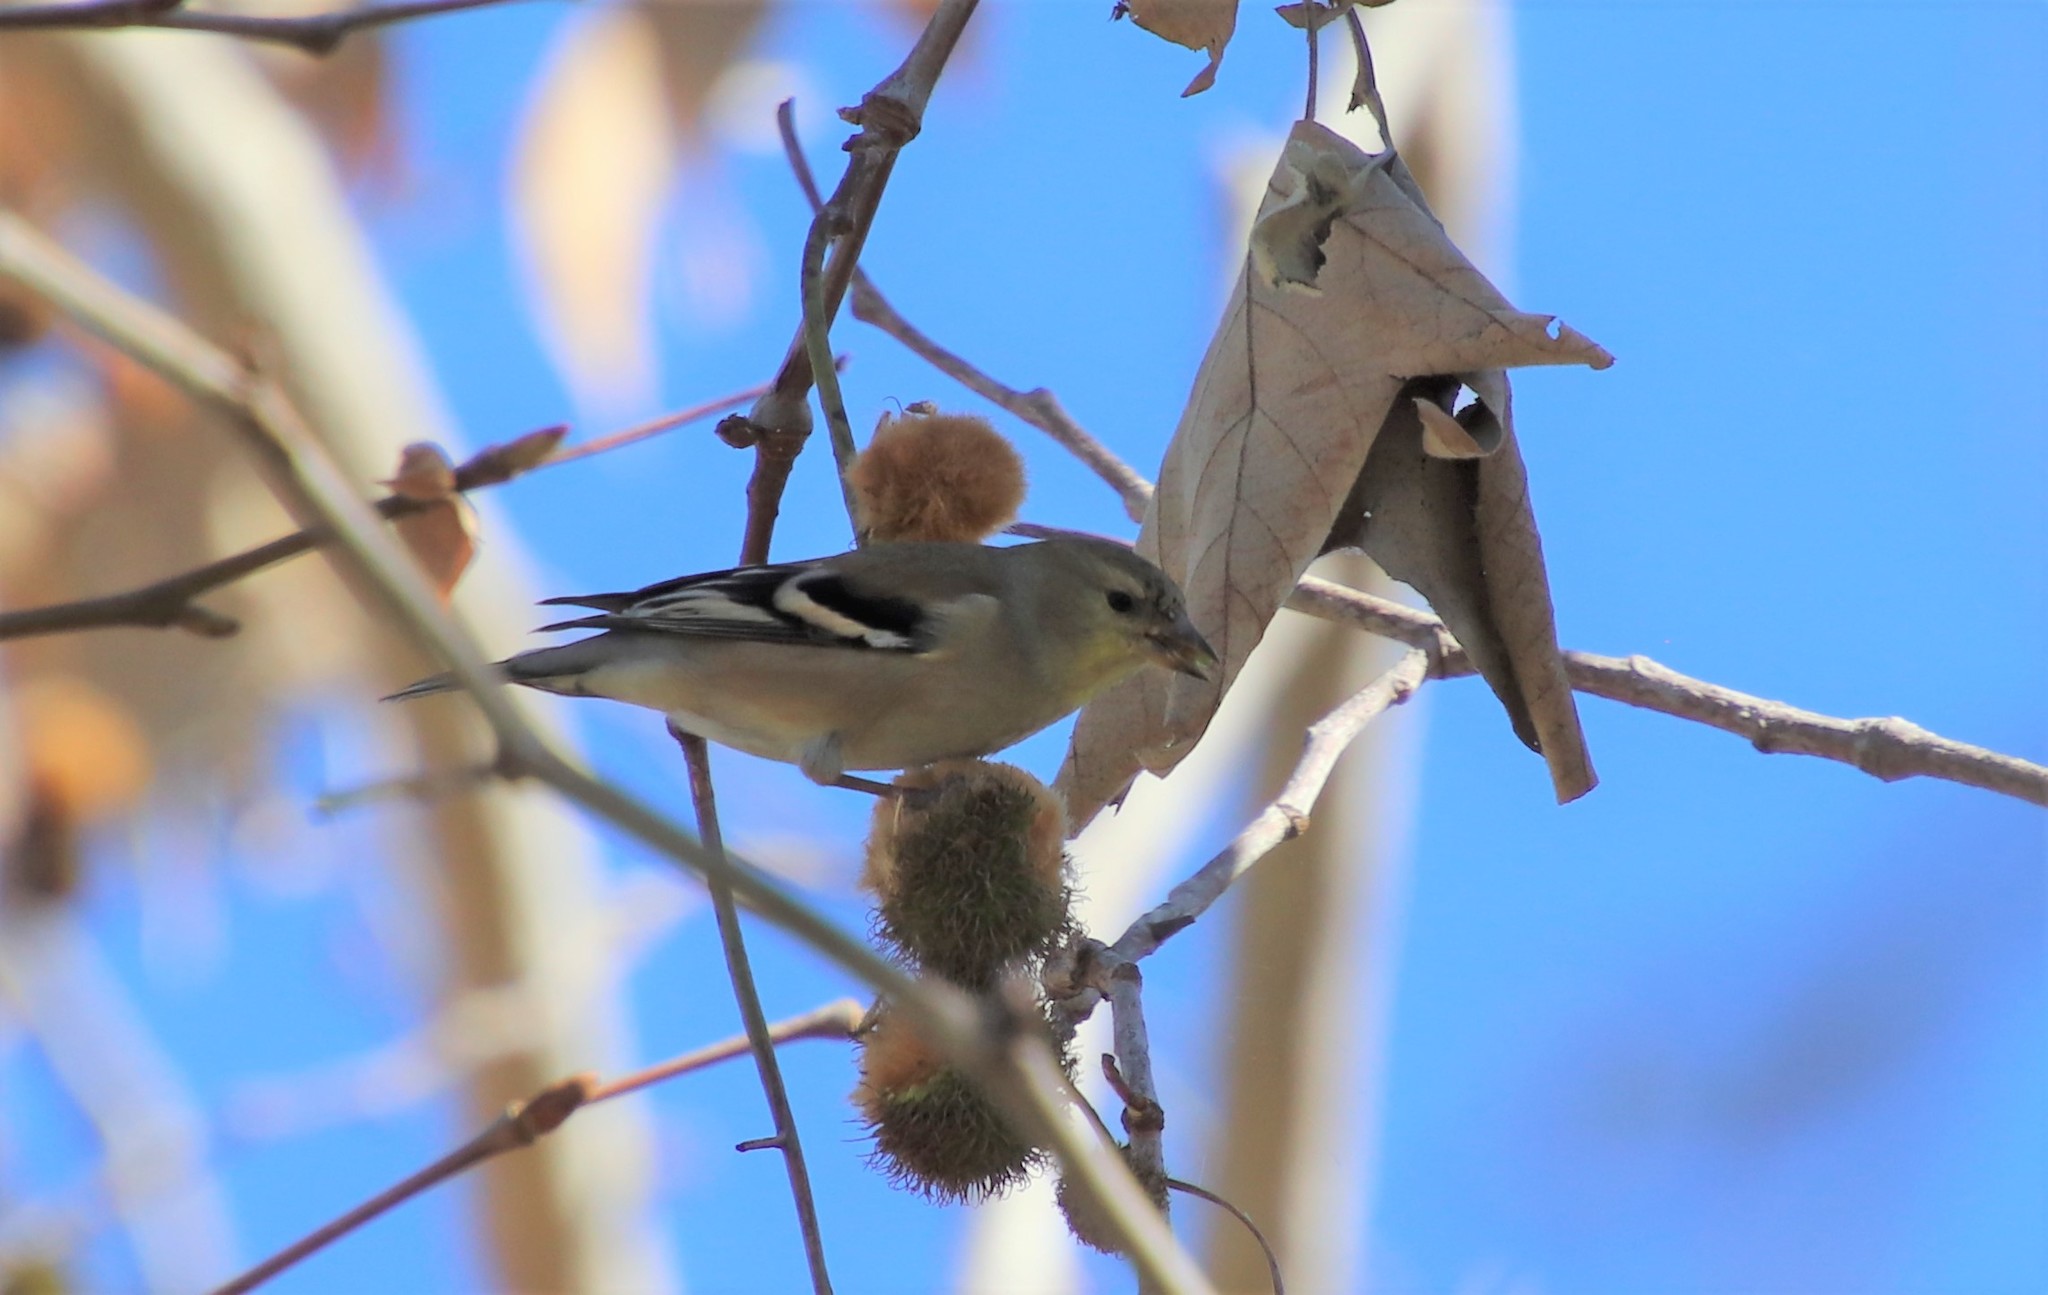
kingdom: Animalia
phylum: Chordata
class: Aves
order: Passeriformes
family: Fringillidae
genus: Spinus
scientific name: Spinus tristis
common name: American goldfinch
